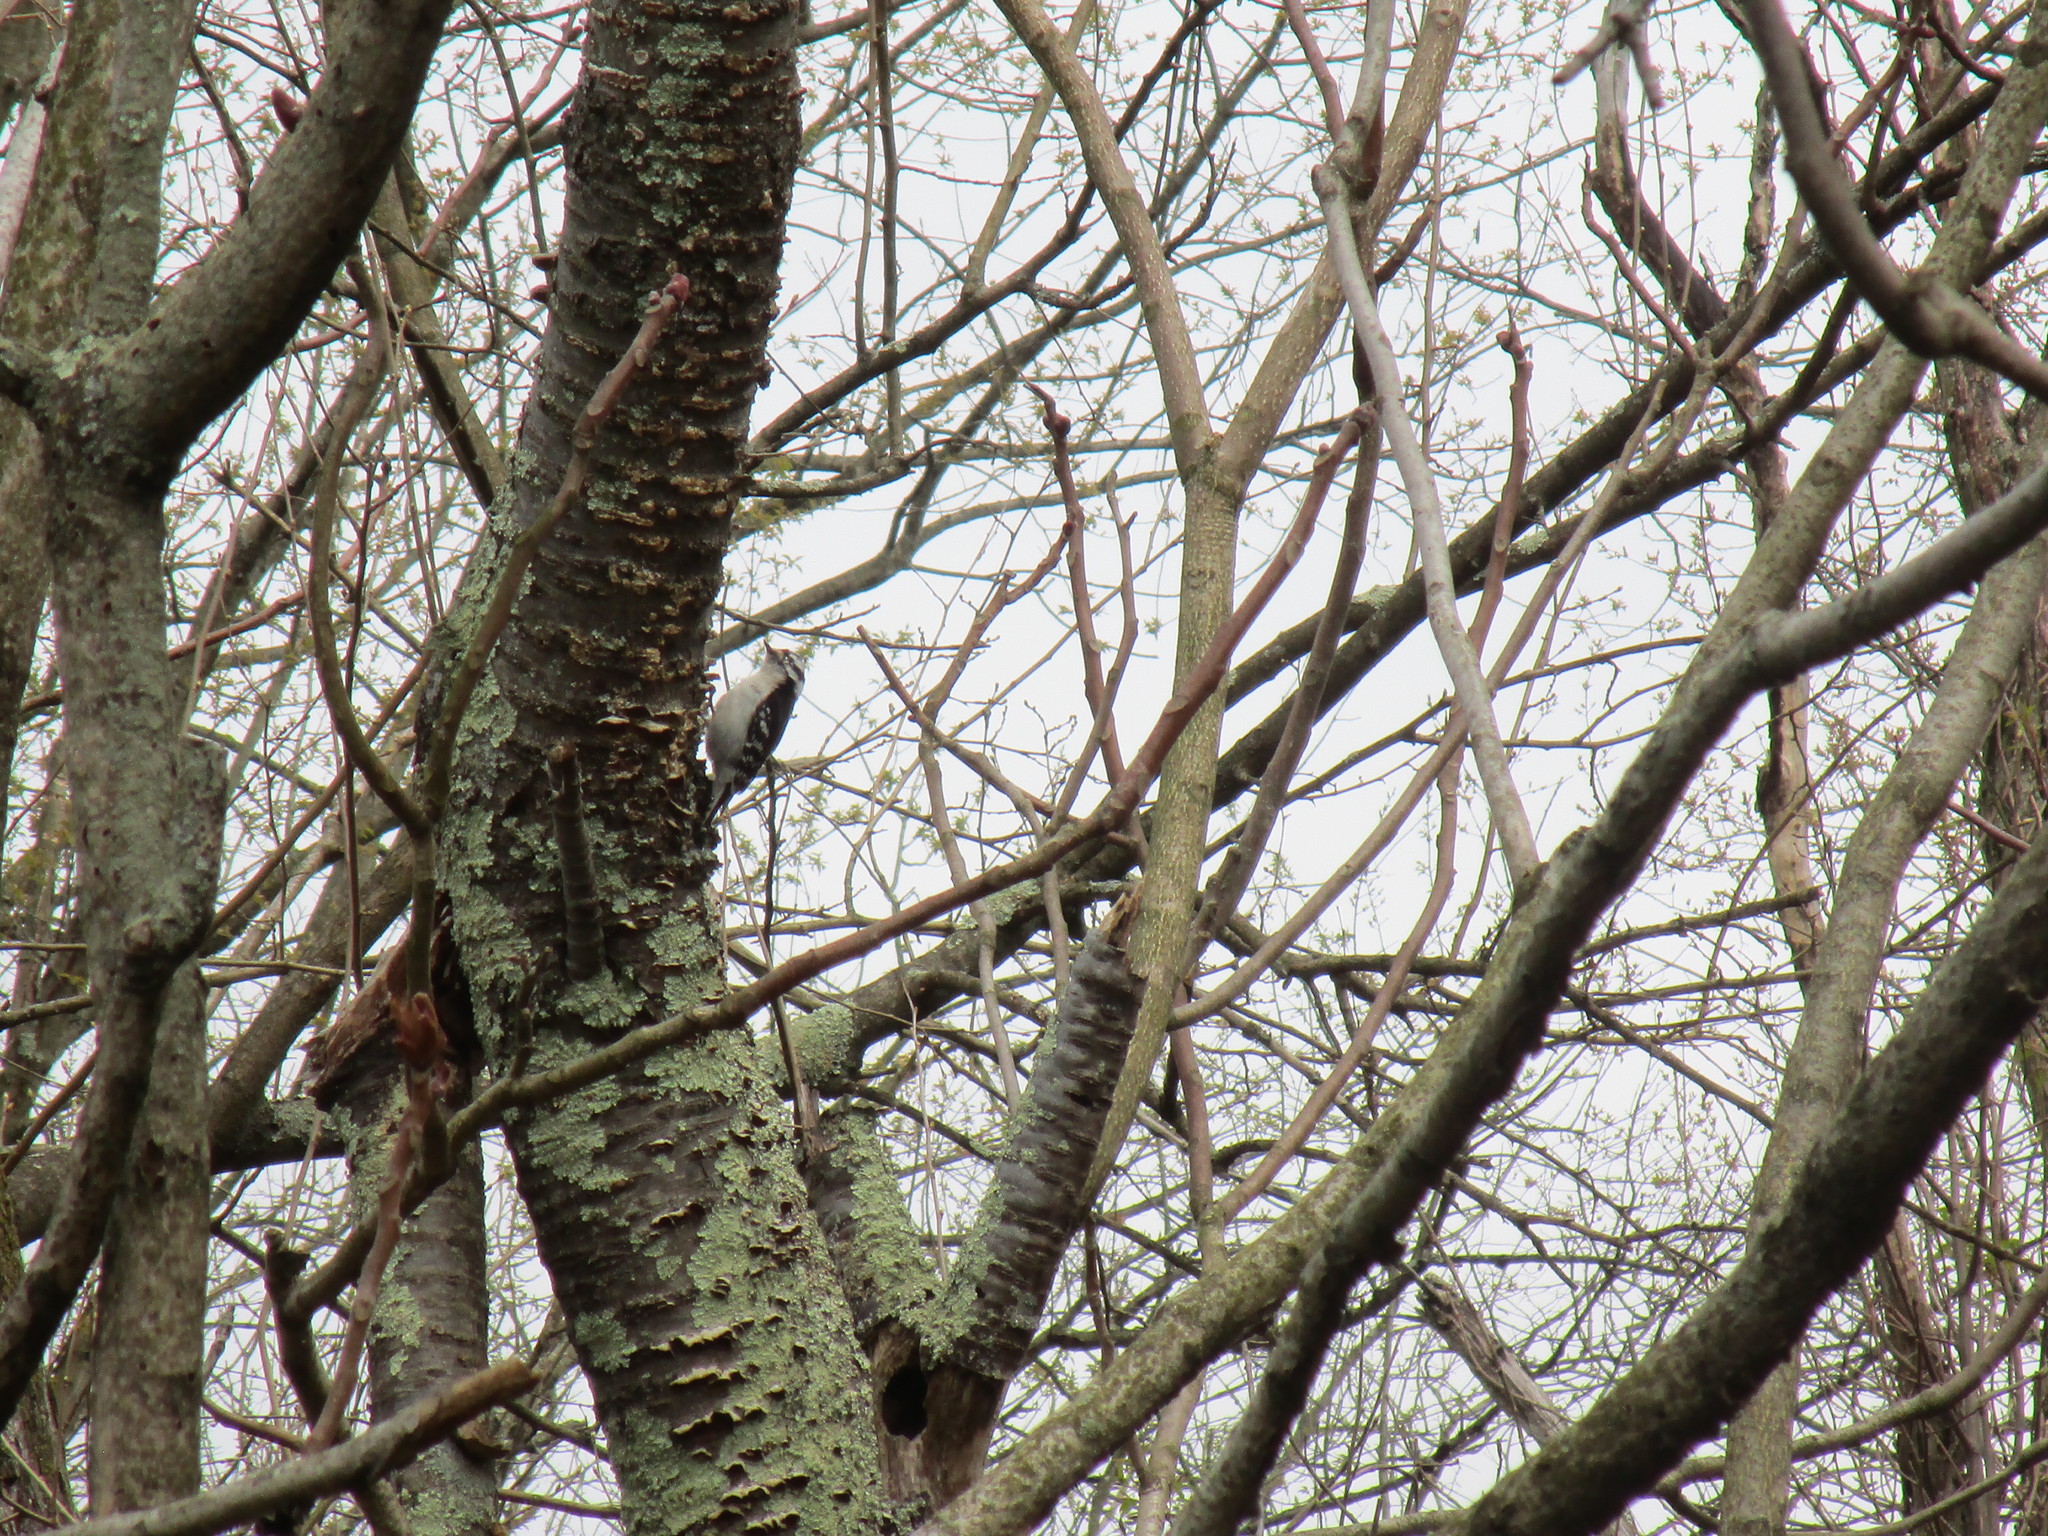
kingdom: Animalia
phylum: Chordata
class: Aves
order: Piciformes
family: Picidae
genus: Dryobates
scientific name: Dryobates pubescens
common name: Downy woodpecker
